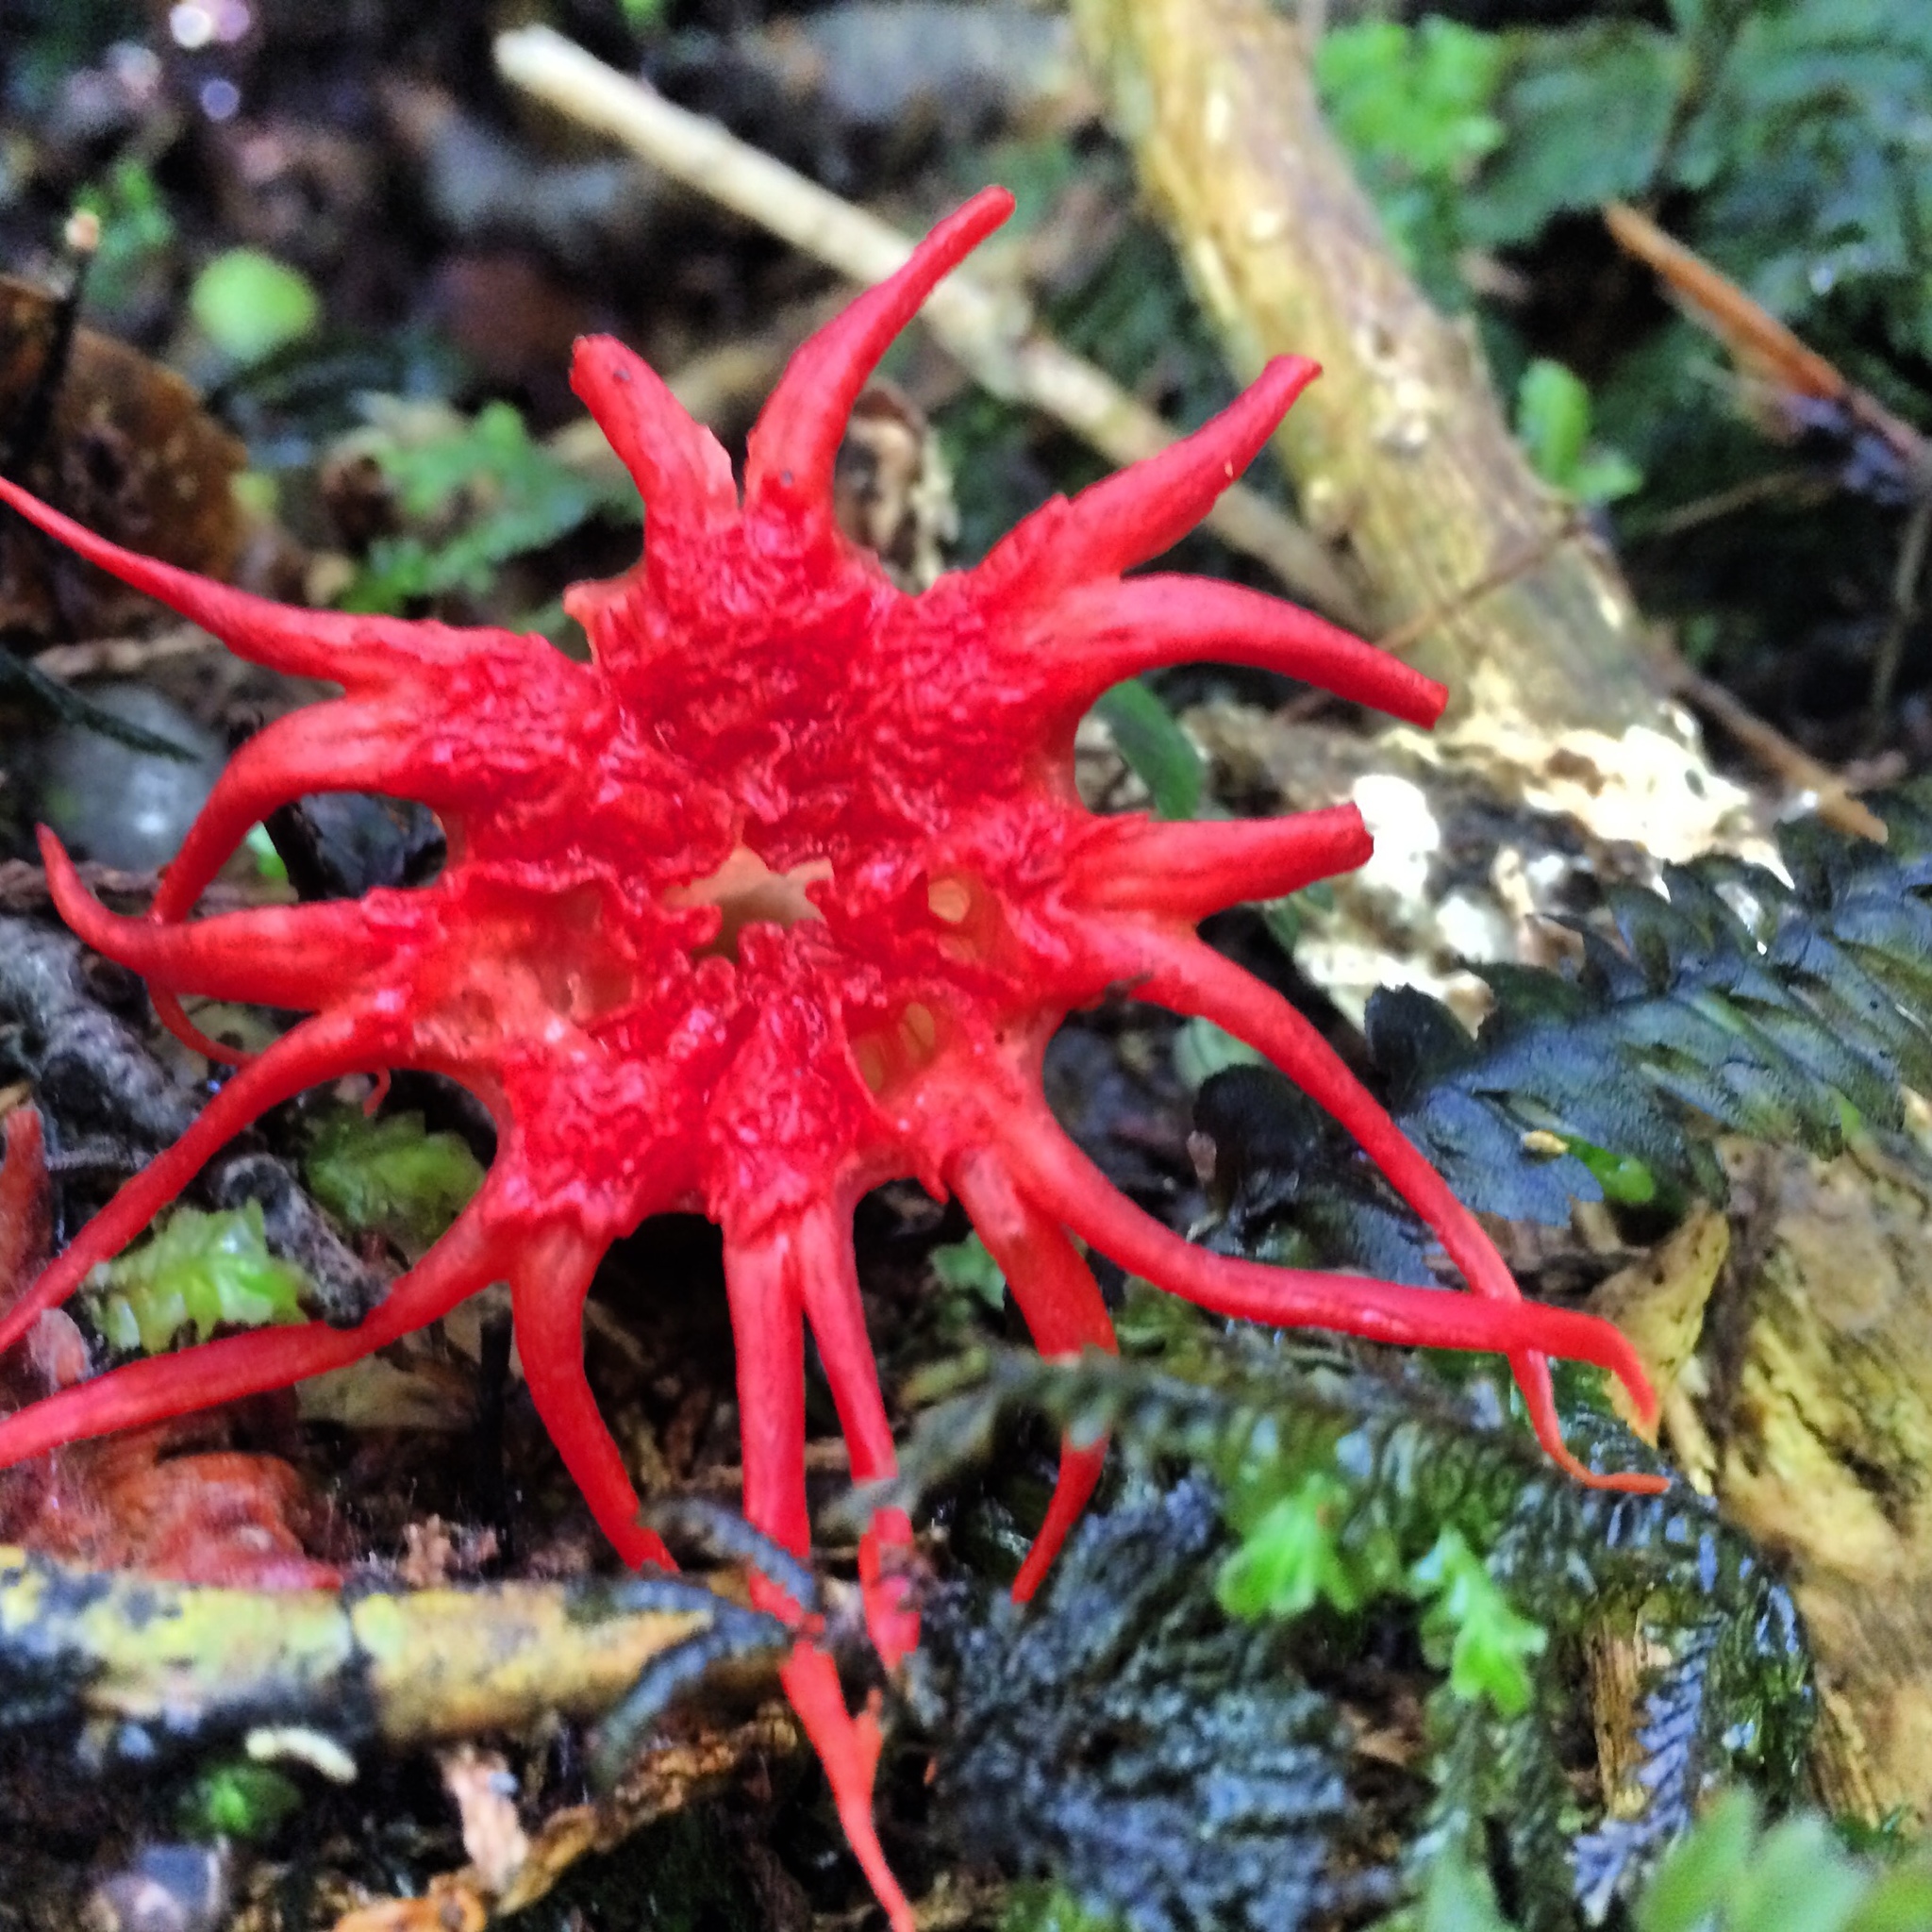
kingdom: Fungi
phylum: Basidiomycota
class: Agaricomycetes
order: Phallales
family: Phallaceae
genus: Aseroe
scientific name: Aseroe rubra
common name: Starfish fungus
